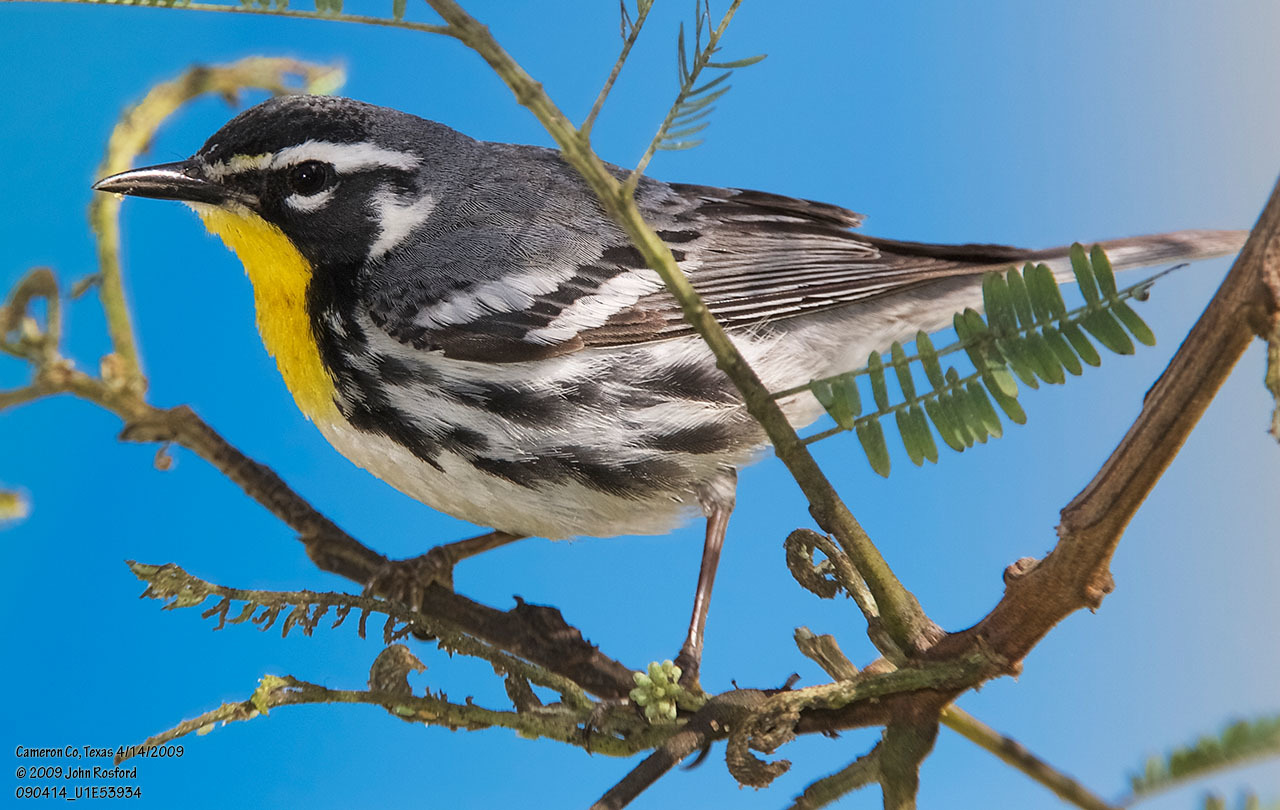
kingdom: Animalia
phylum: Chordata
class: Aves
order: Passeriformes
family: Parulidae
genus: Setophaga
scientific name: Setophaga dominica
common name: Yellow-throated warbler
